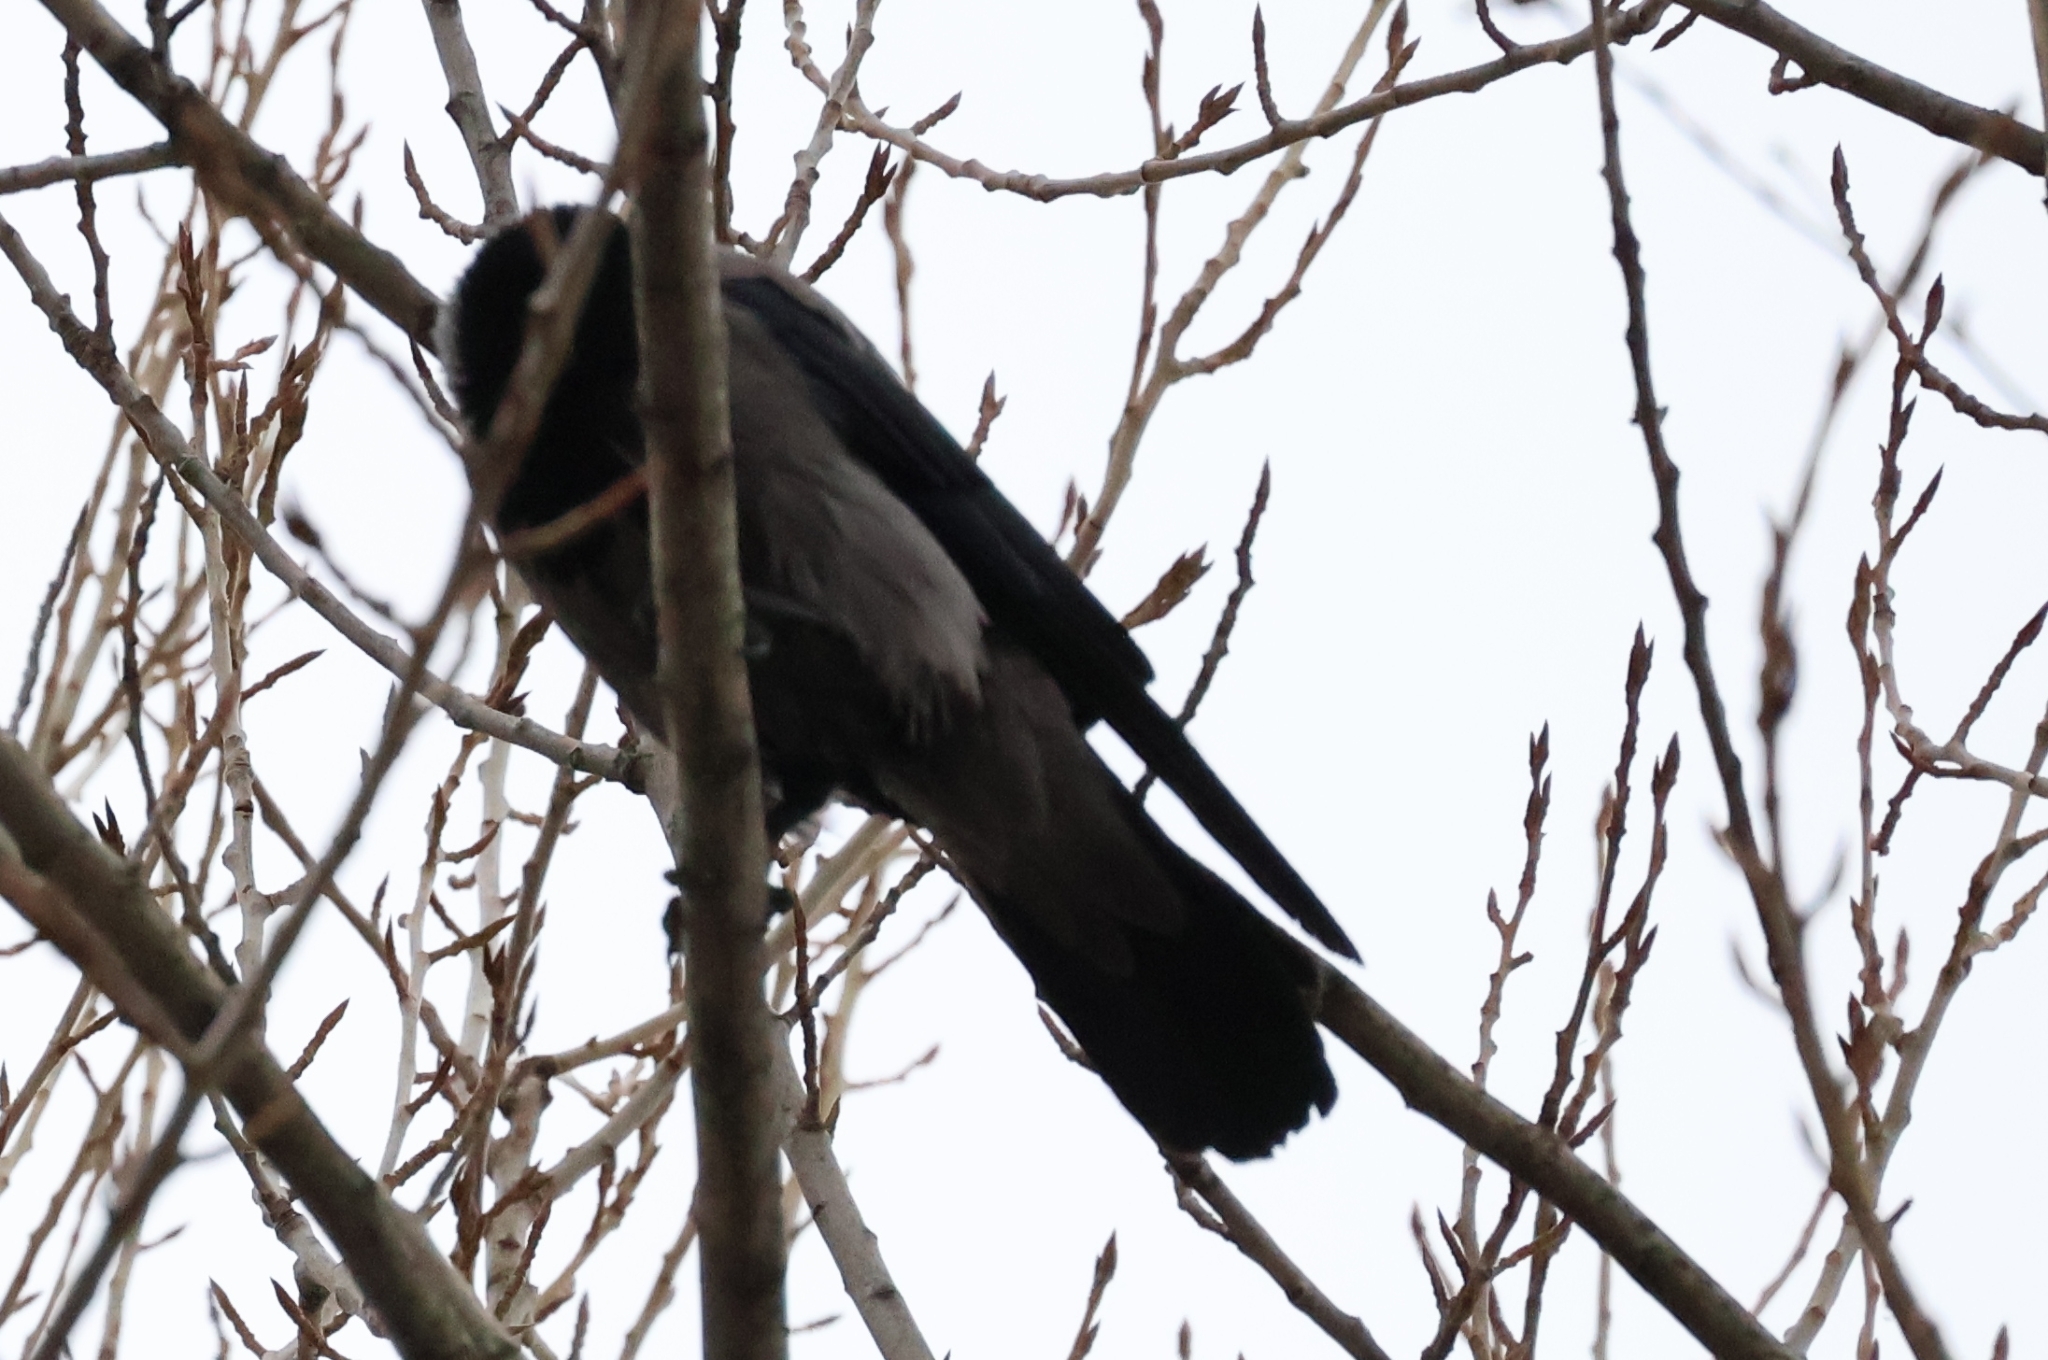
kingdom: Animalia
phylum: Chordata
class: Aves
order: Passeriformes
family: Corvidae
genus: Corvus
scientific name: Corvus cornix
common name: Hooded crow
